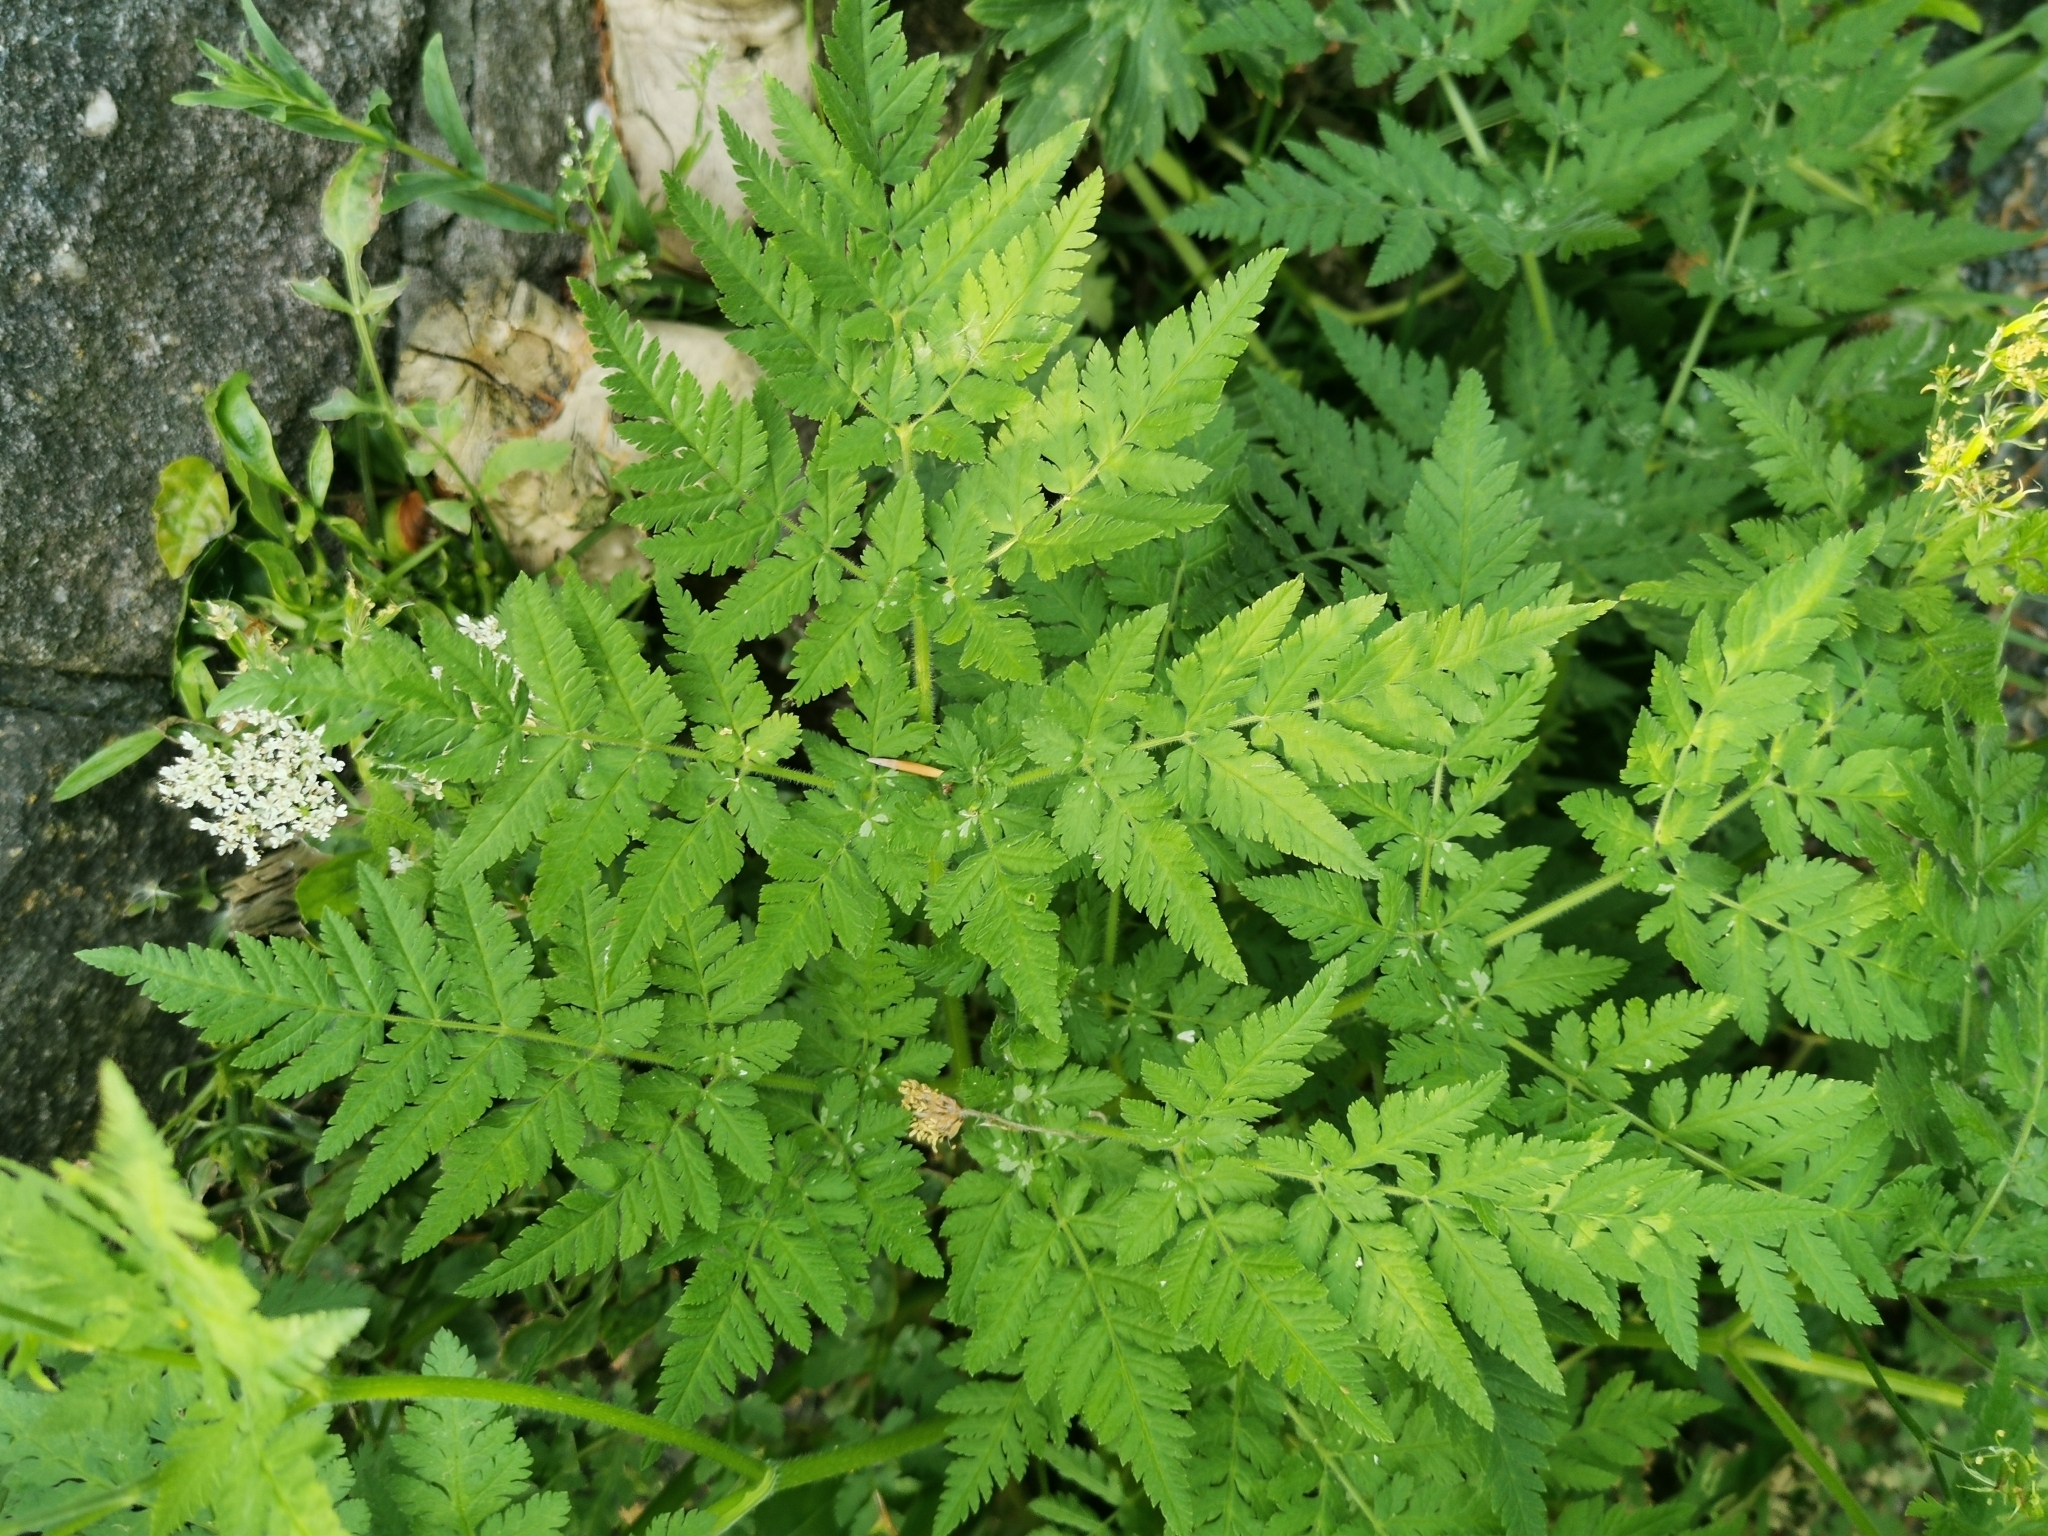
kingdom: Plantae
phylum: Tracheophyta
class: Magnoliopsida
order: Apiales
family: Apiaceae
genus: Myrrhis
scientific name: Myrrhis odorata
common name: Sweet cicely
